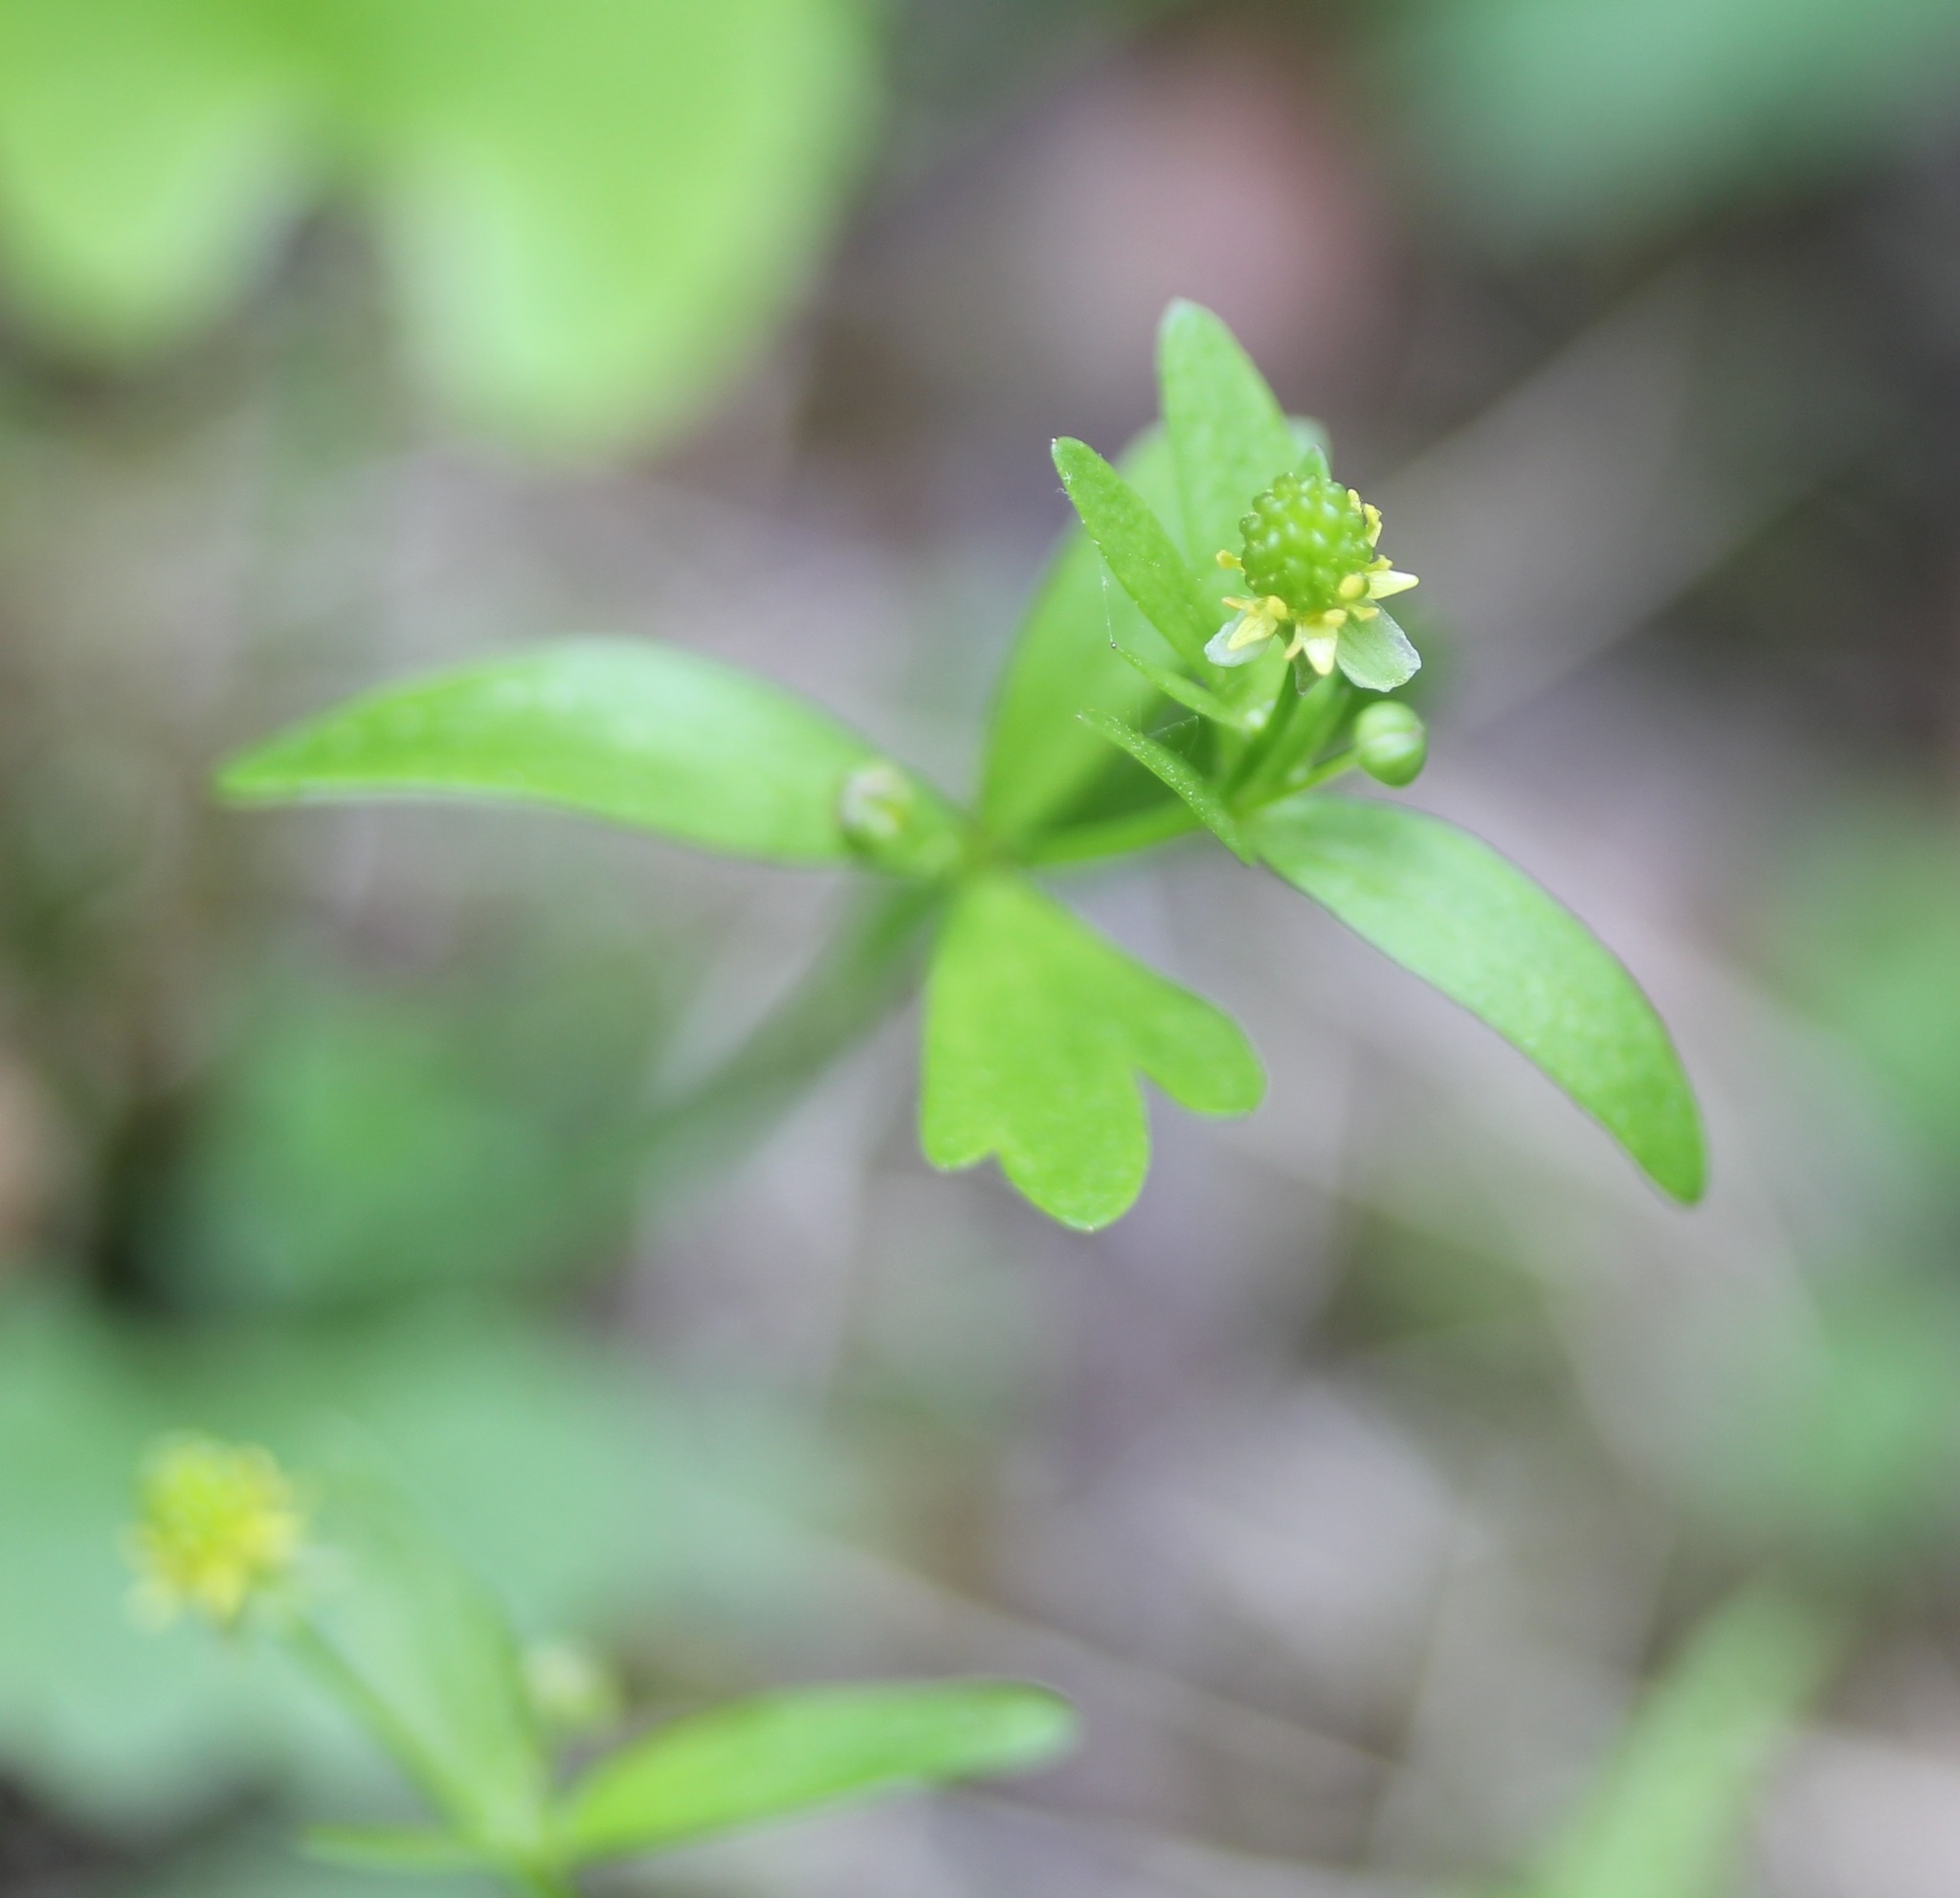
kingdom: Plantae
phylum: Tracheophyta
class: Magnoliopsida
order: Ranunculales
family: Ranunculaceae
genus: Ranunculus
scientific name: Ranunculus sceleratus
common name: Celery-leaved buttercup
